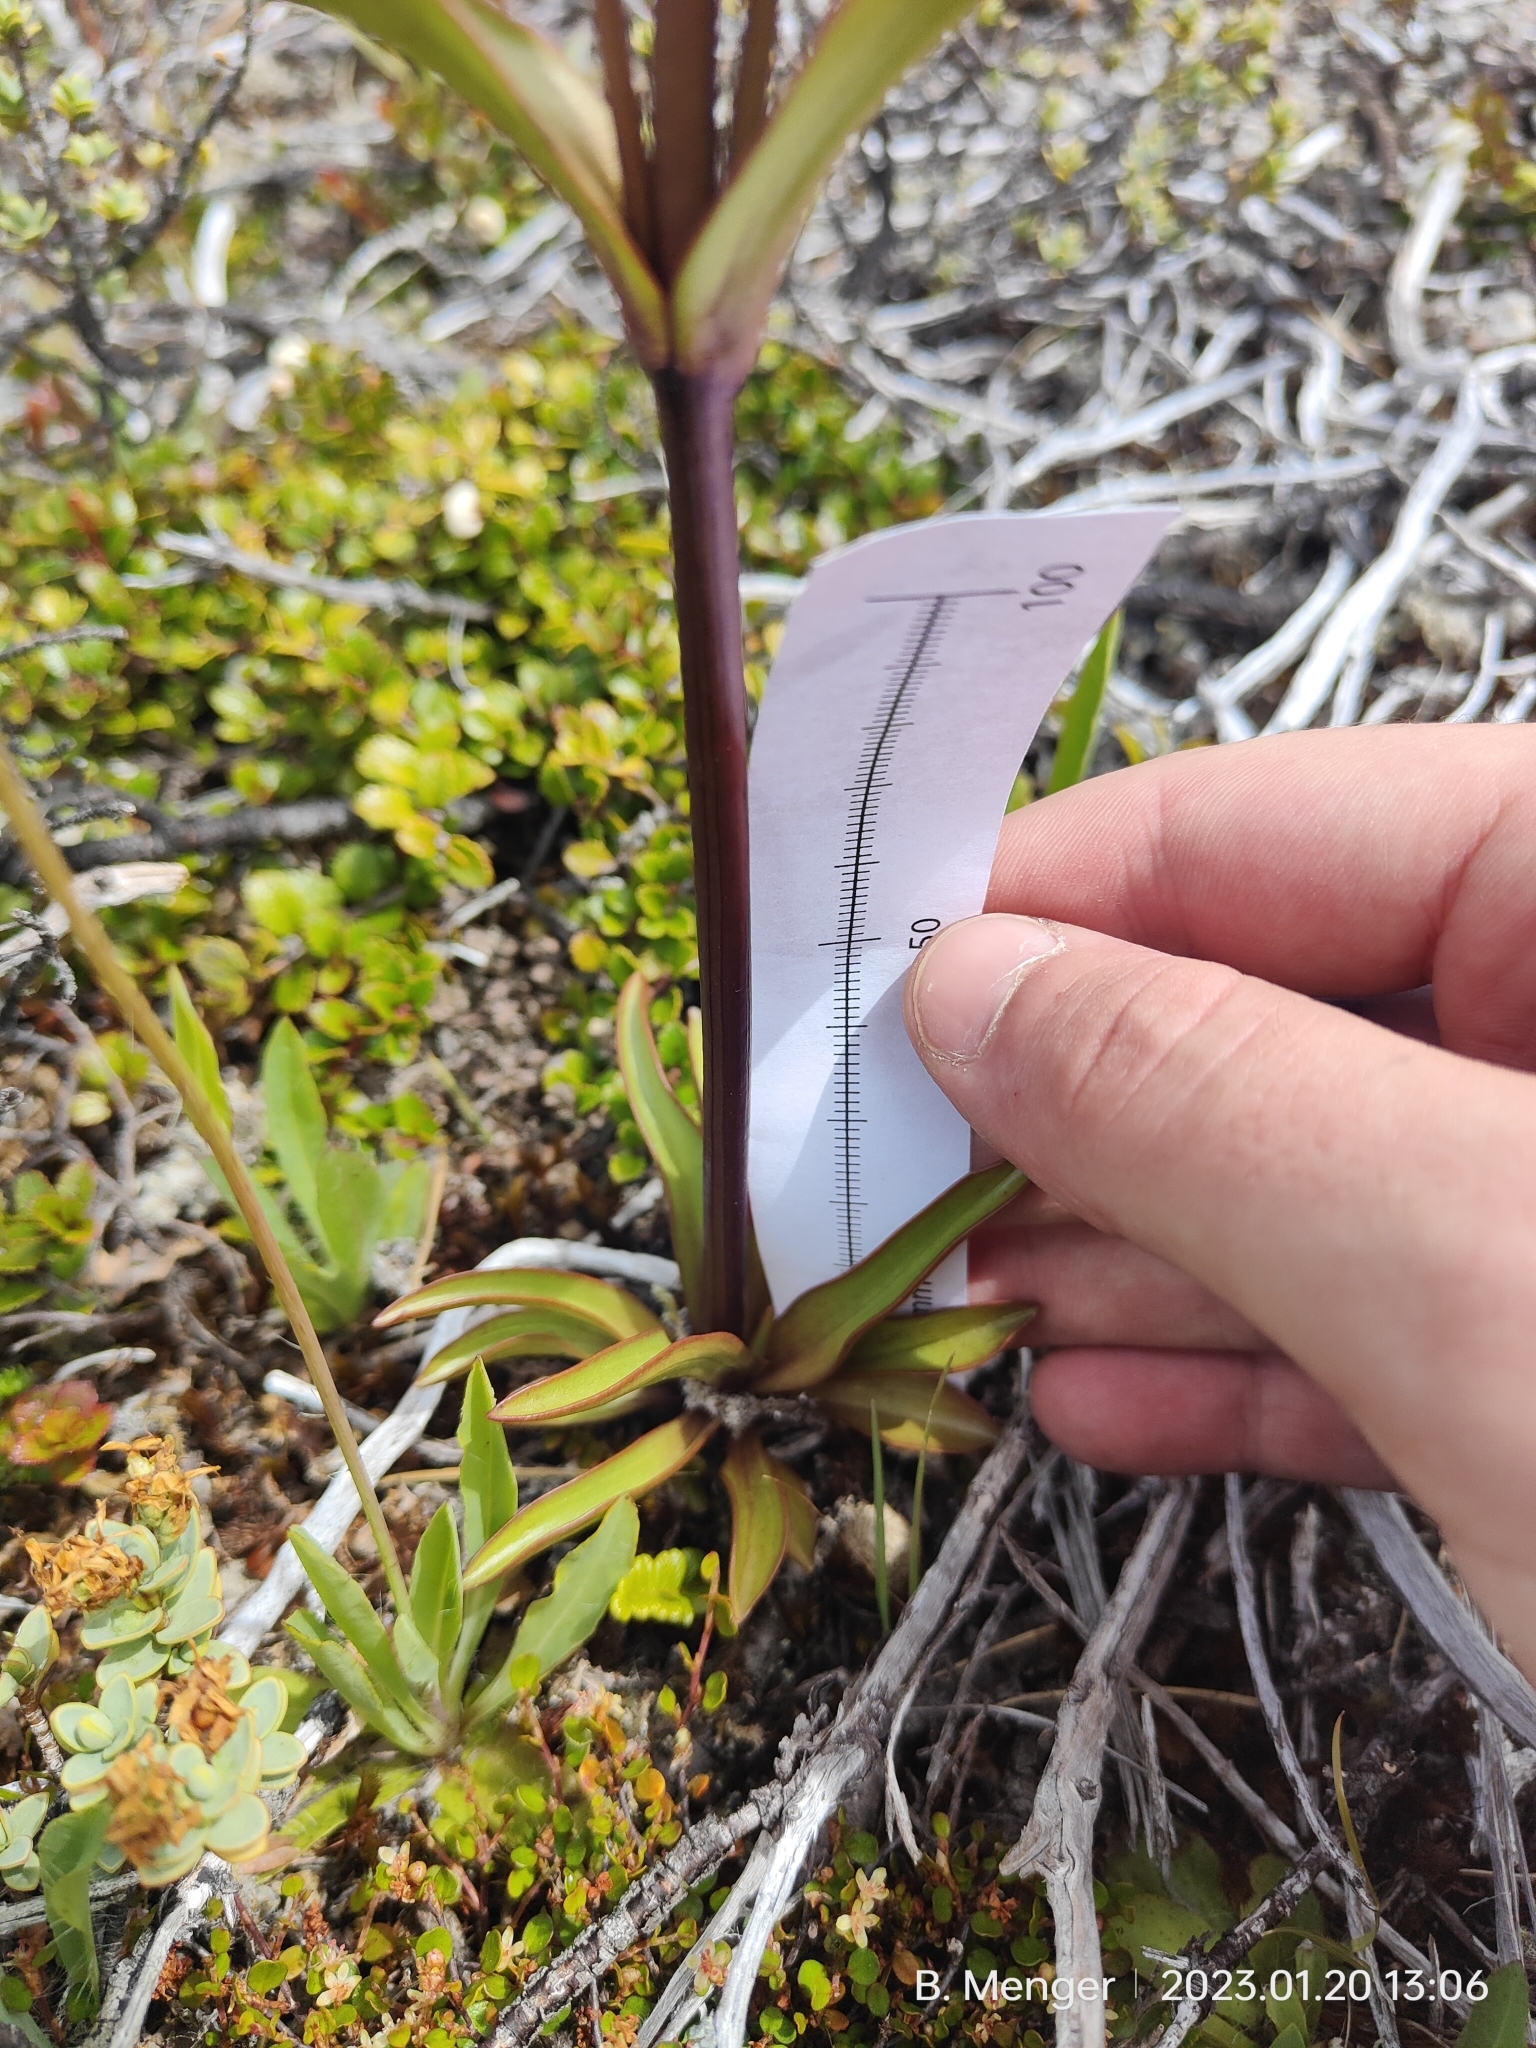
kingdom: Plantae
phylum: Tracheophyta
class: Magnoliopsida
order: Gentianales
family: Gentianaceae
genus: Gentianella
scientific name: Gentianella corymbifera
